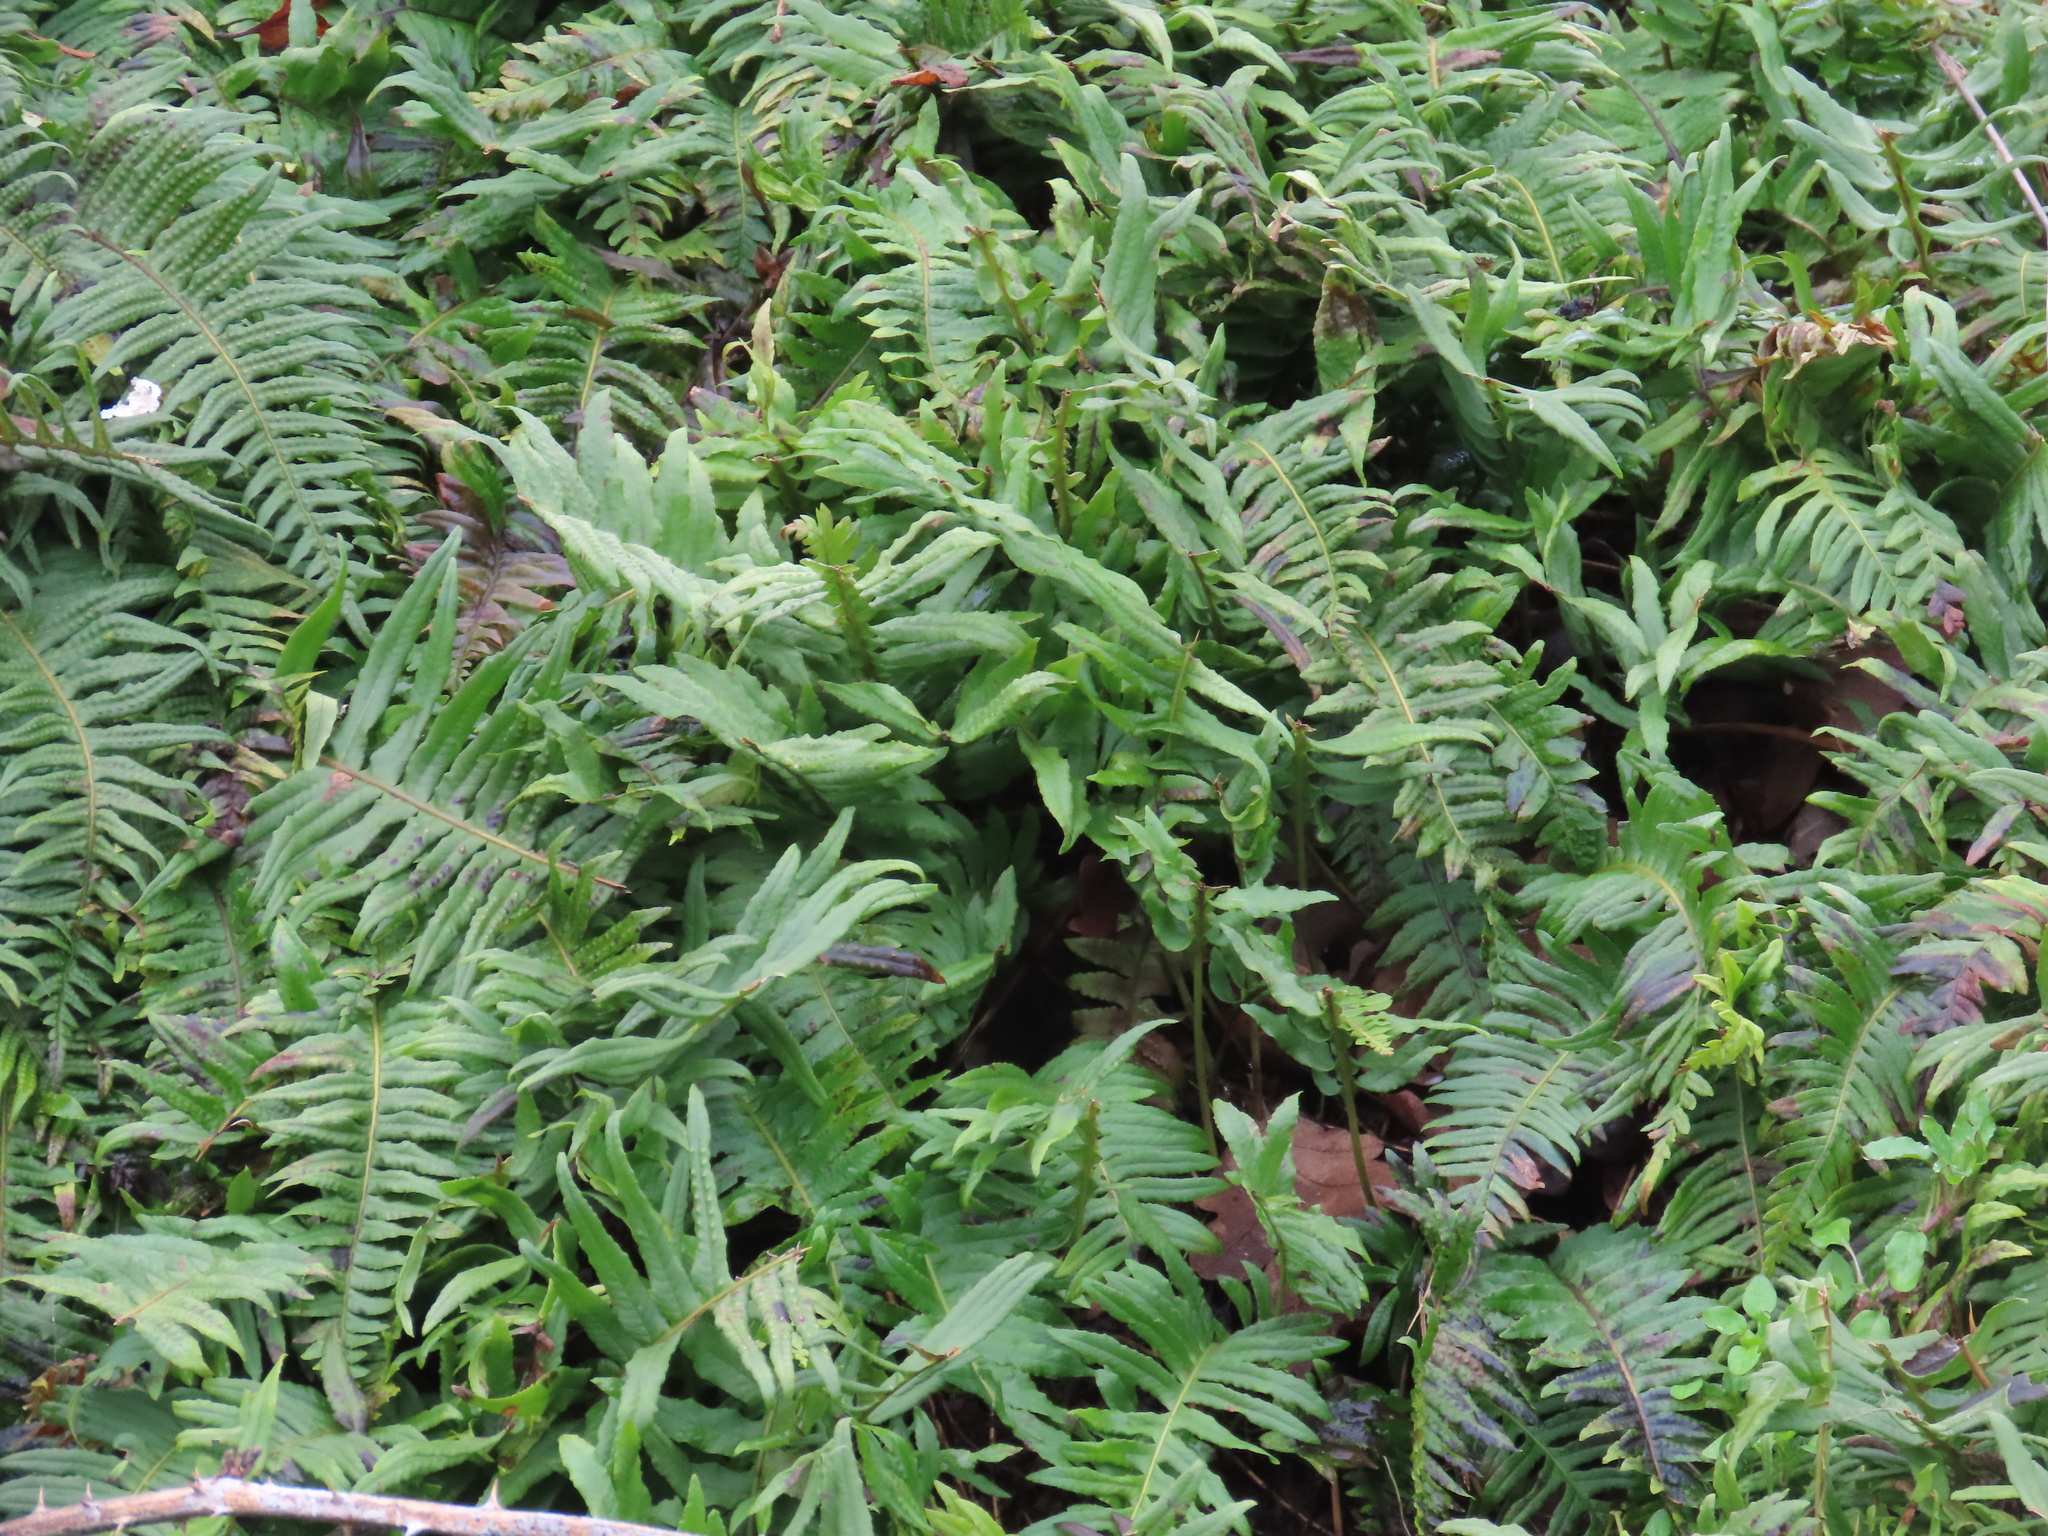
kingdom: Plantae
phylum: Tracheophyta
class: Polypodiopsida
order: Polypodiales
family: Polypodiaceae
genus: Polypodium
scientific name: Polypodium glycyrrhiza
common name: Licorice fern
